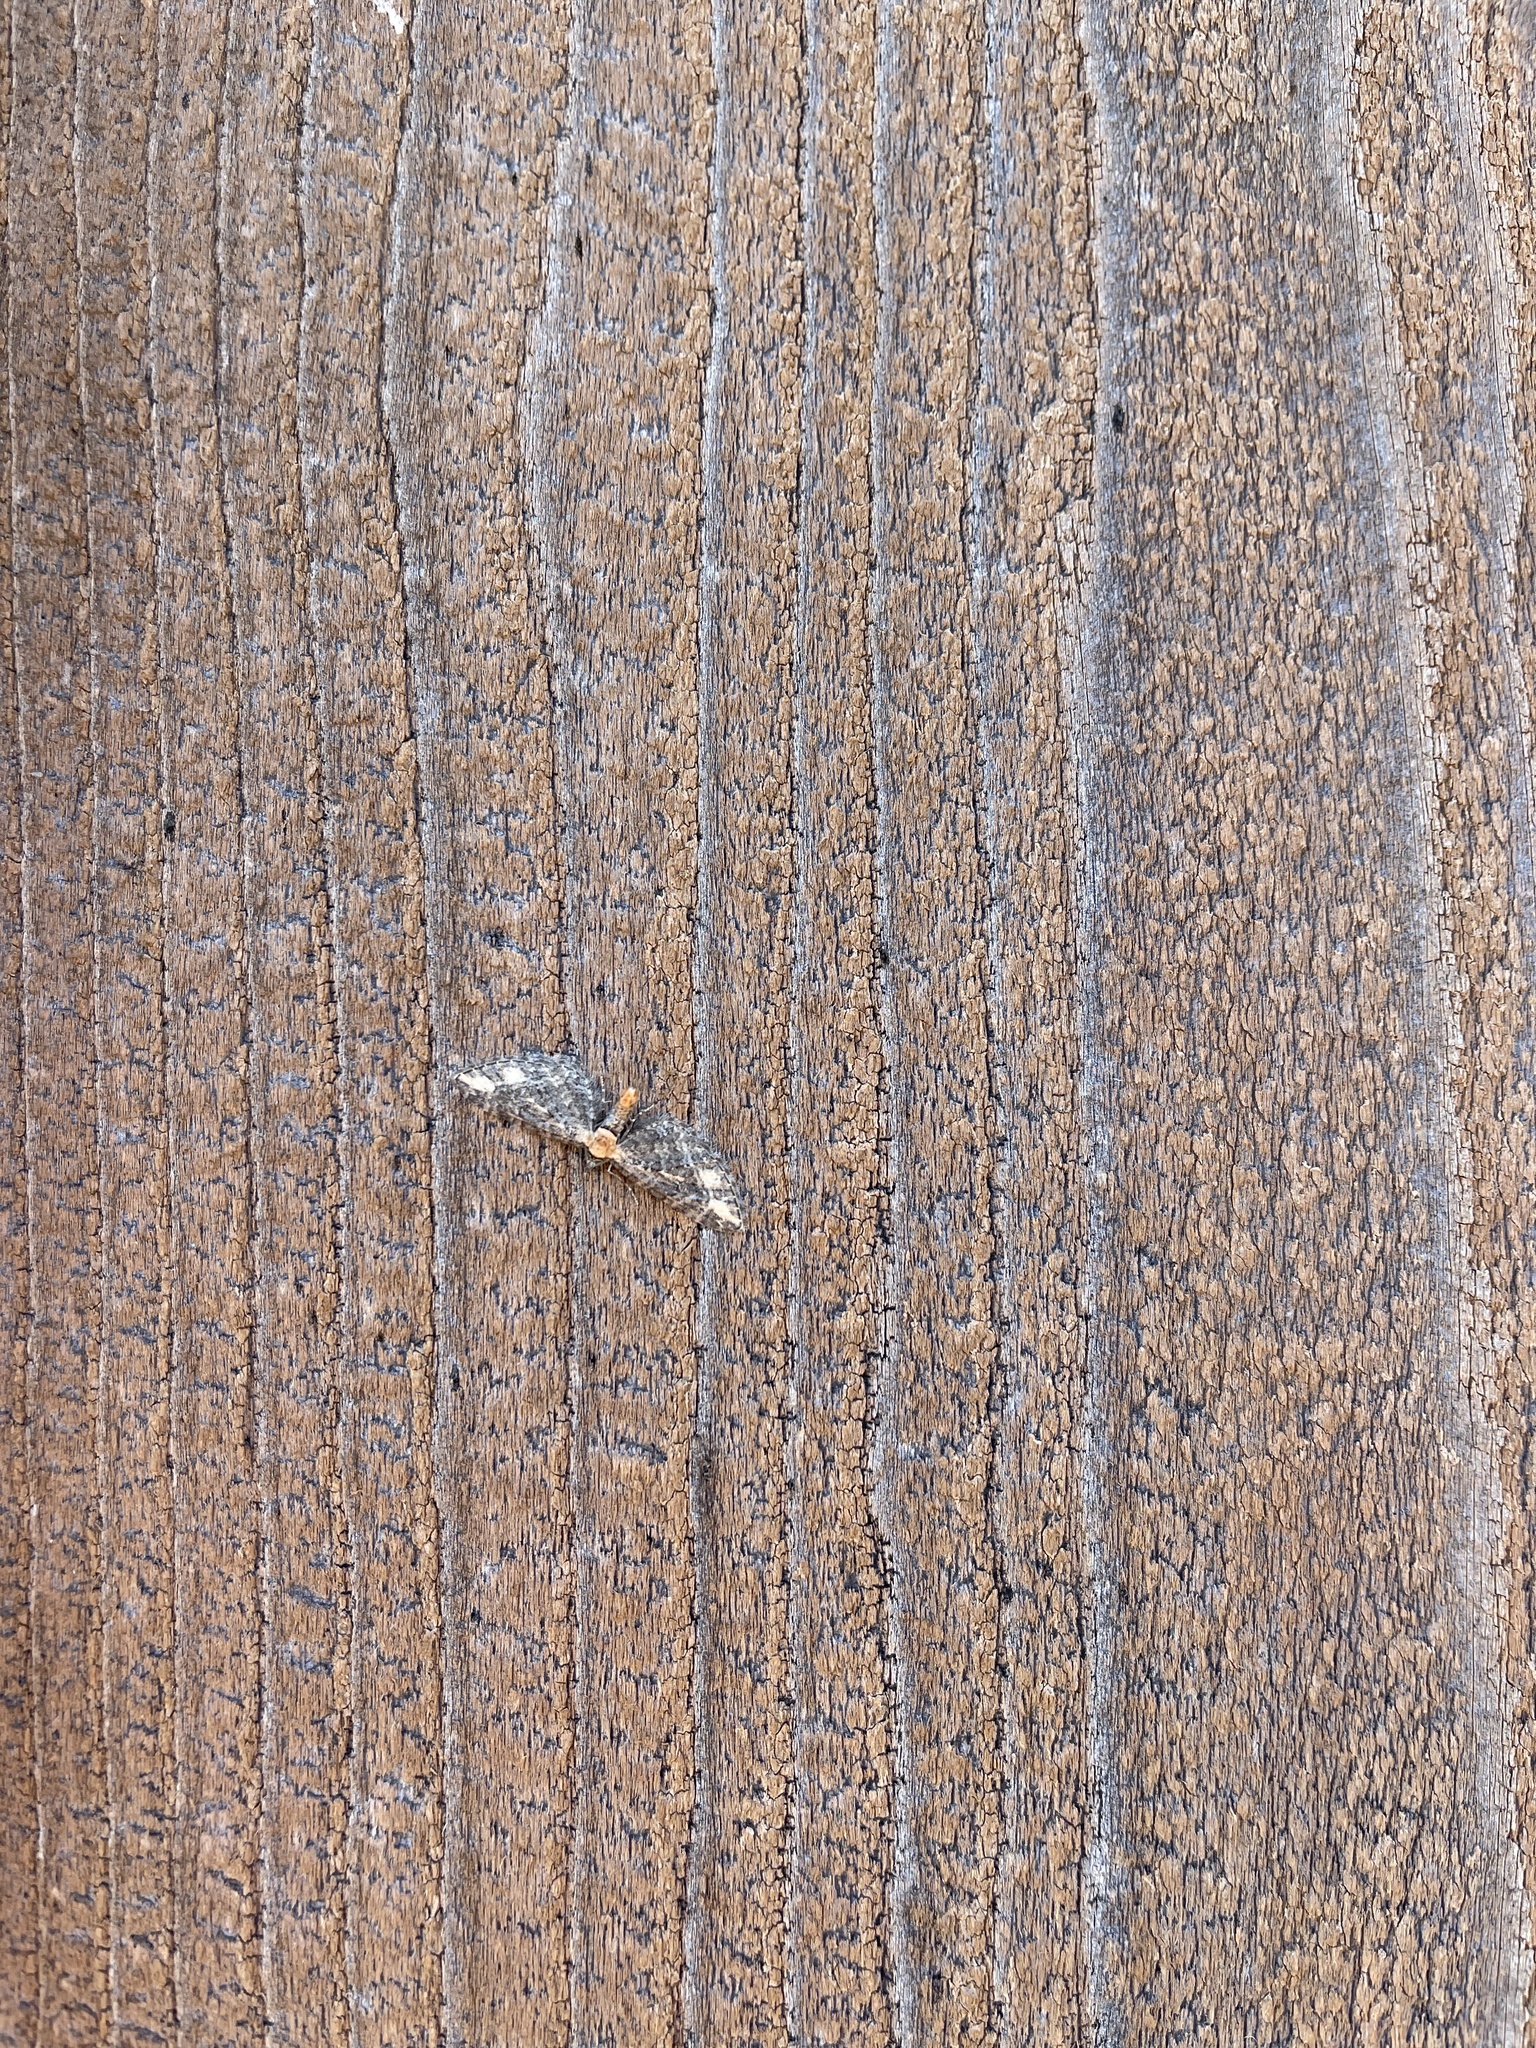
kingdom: Animalia
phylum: Arthropoda
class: Insecta
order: Lepidoptera
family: Geometridae
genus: Eupithecia
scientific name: Eupithecia flavigutta
